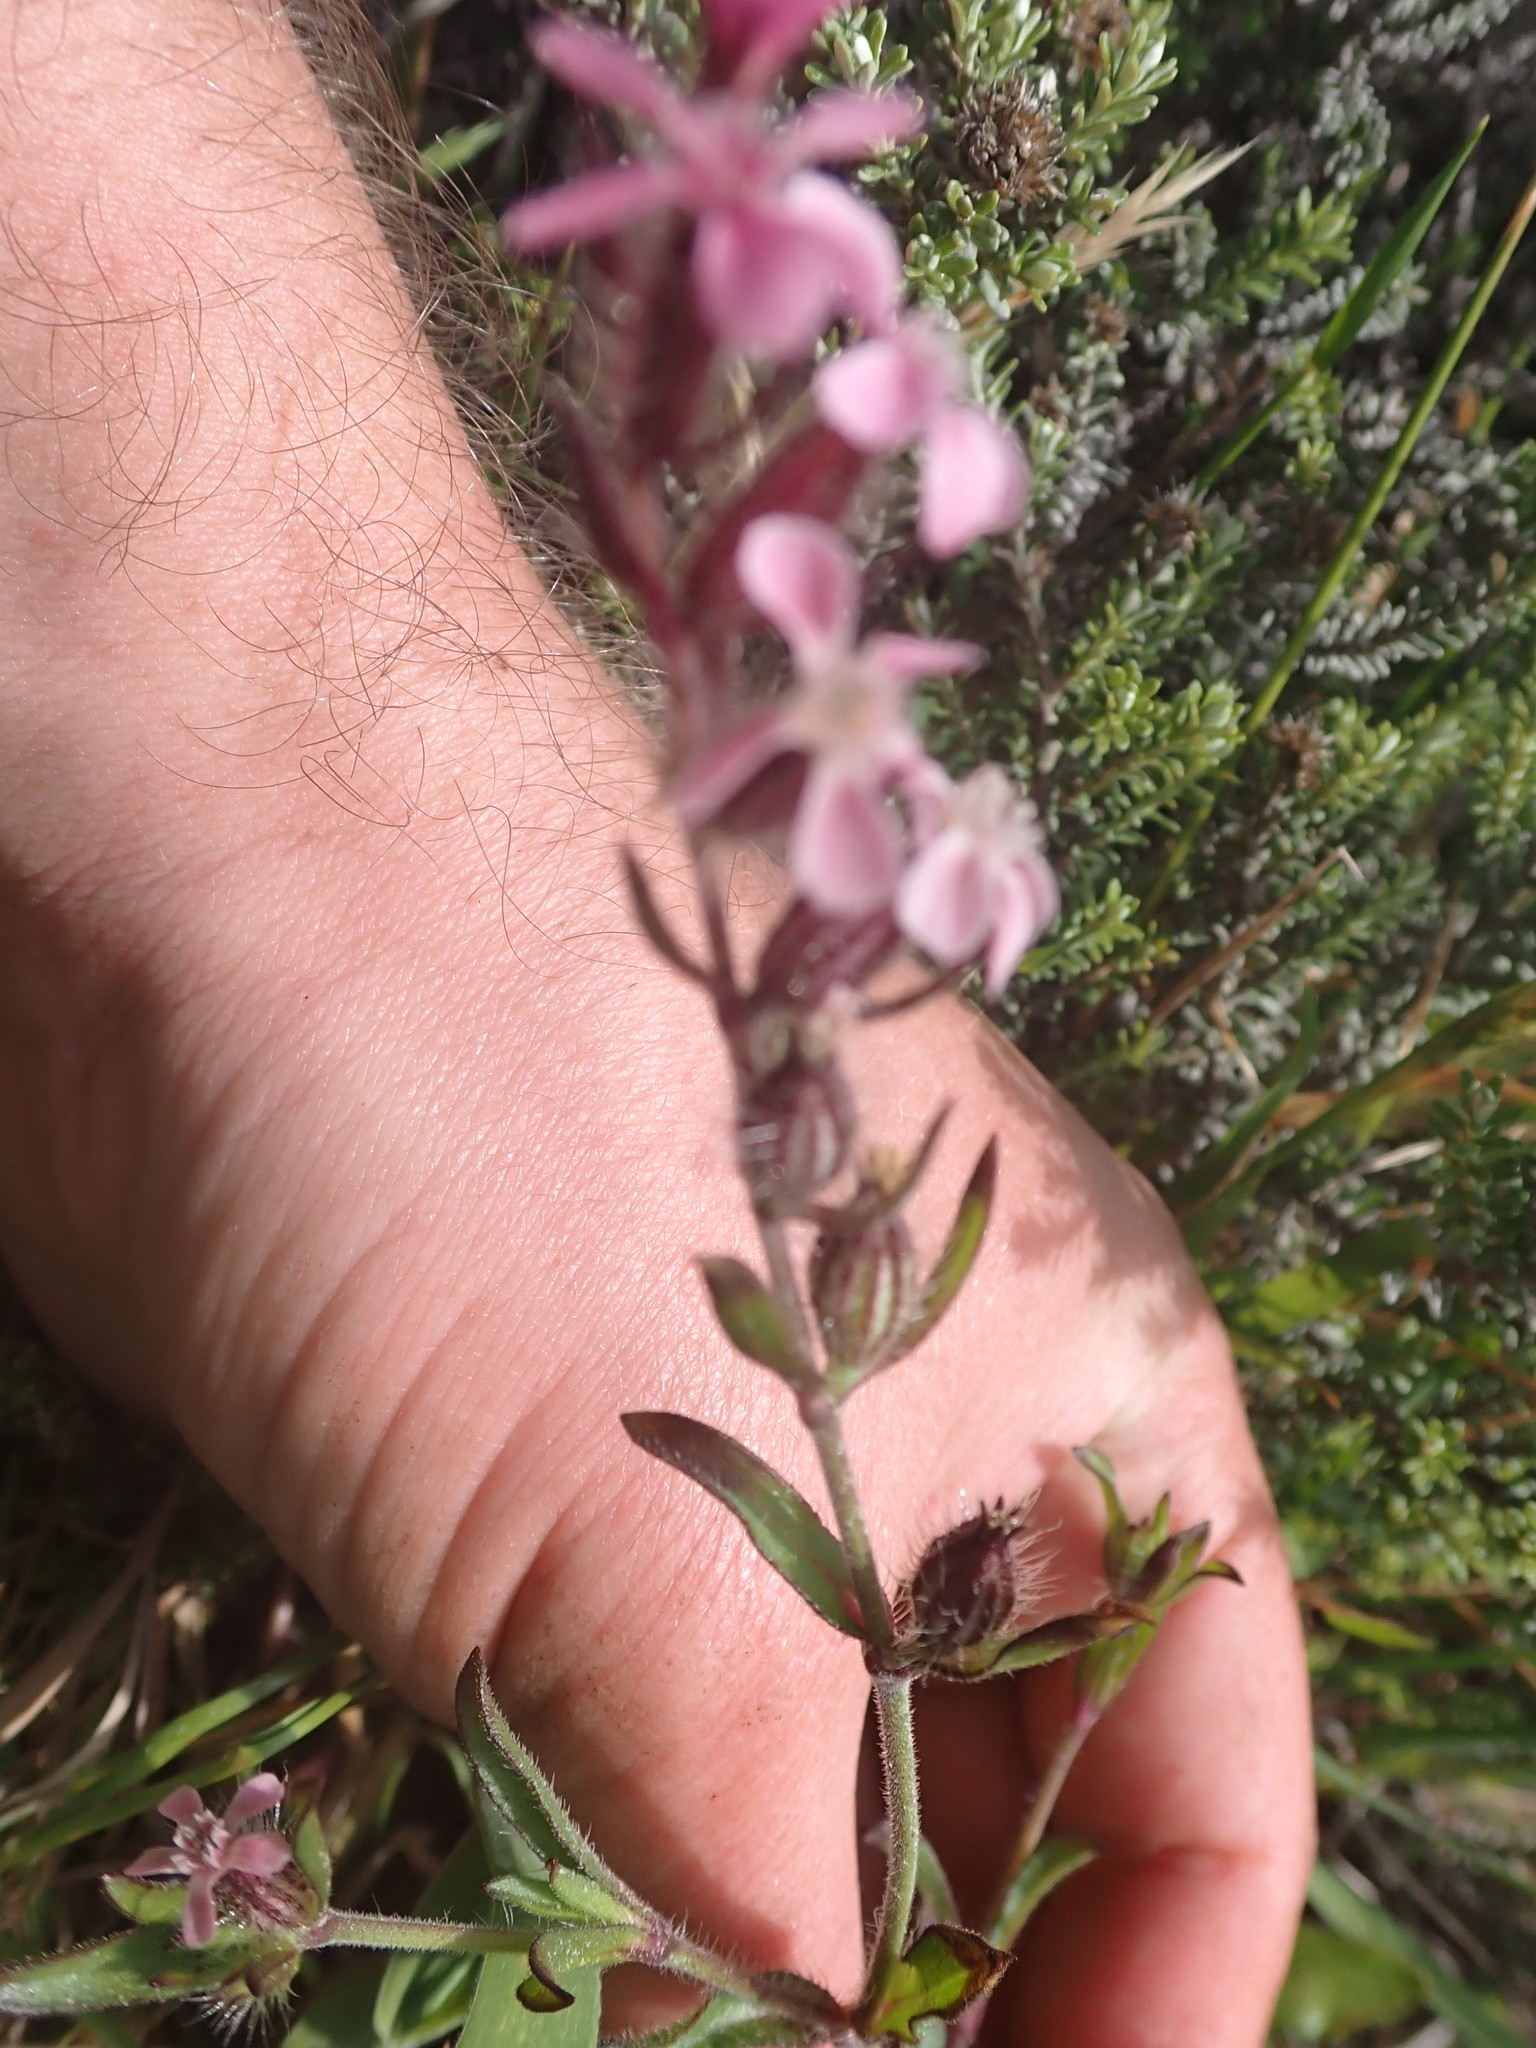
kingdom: Plantae
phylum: Tracheophyta
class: Magnoliopsida
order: Caryophyllales
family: Caryophyllaceae
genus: Silene
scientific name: Silene gallica
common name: Small-flowered catchfly
